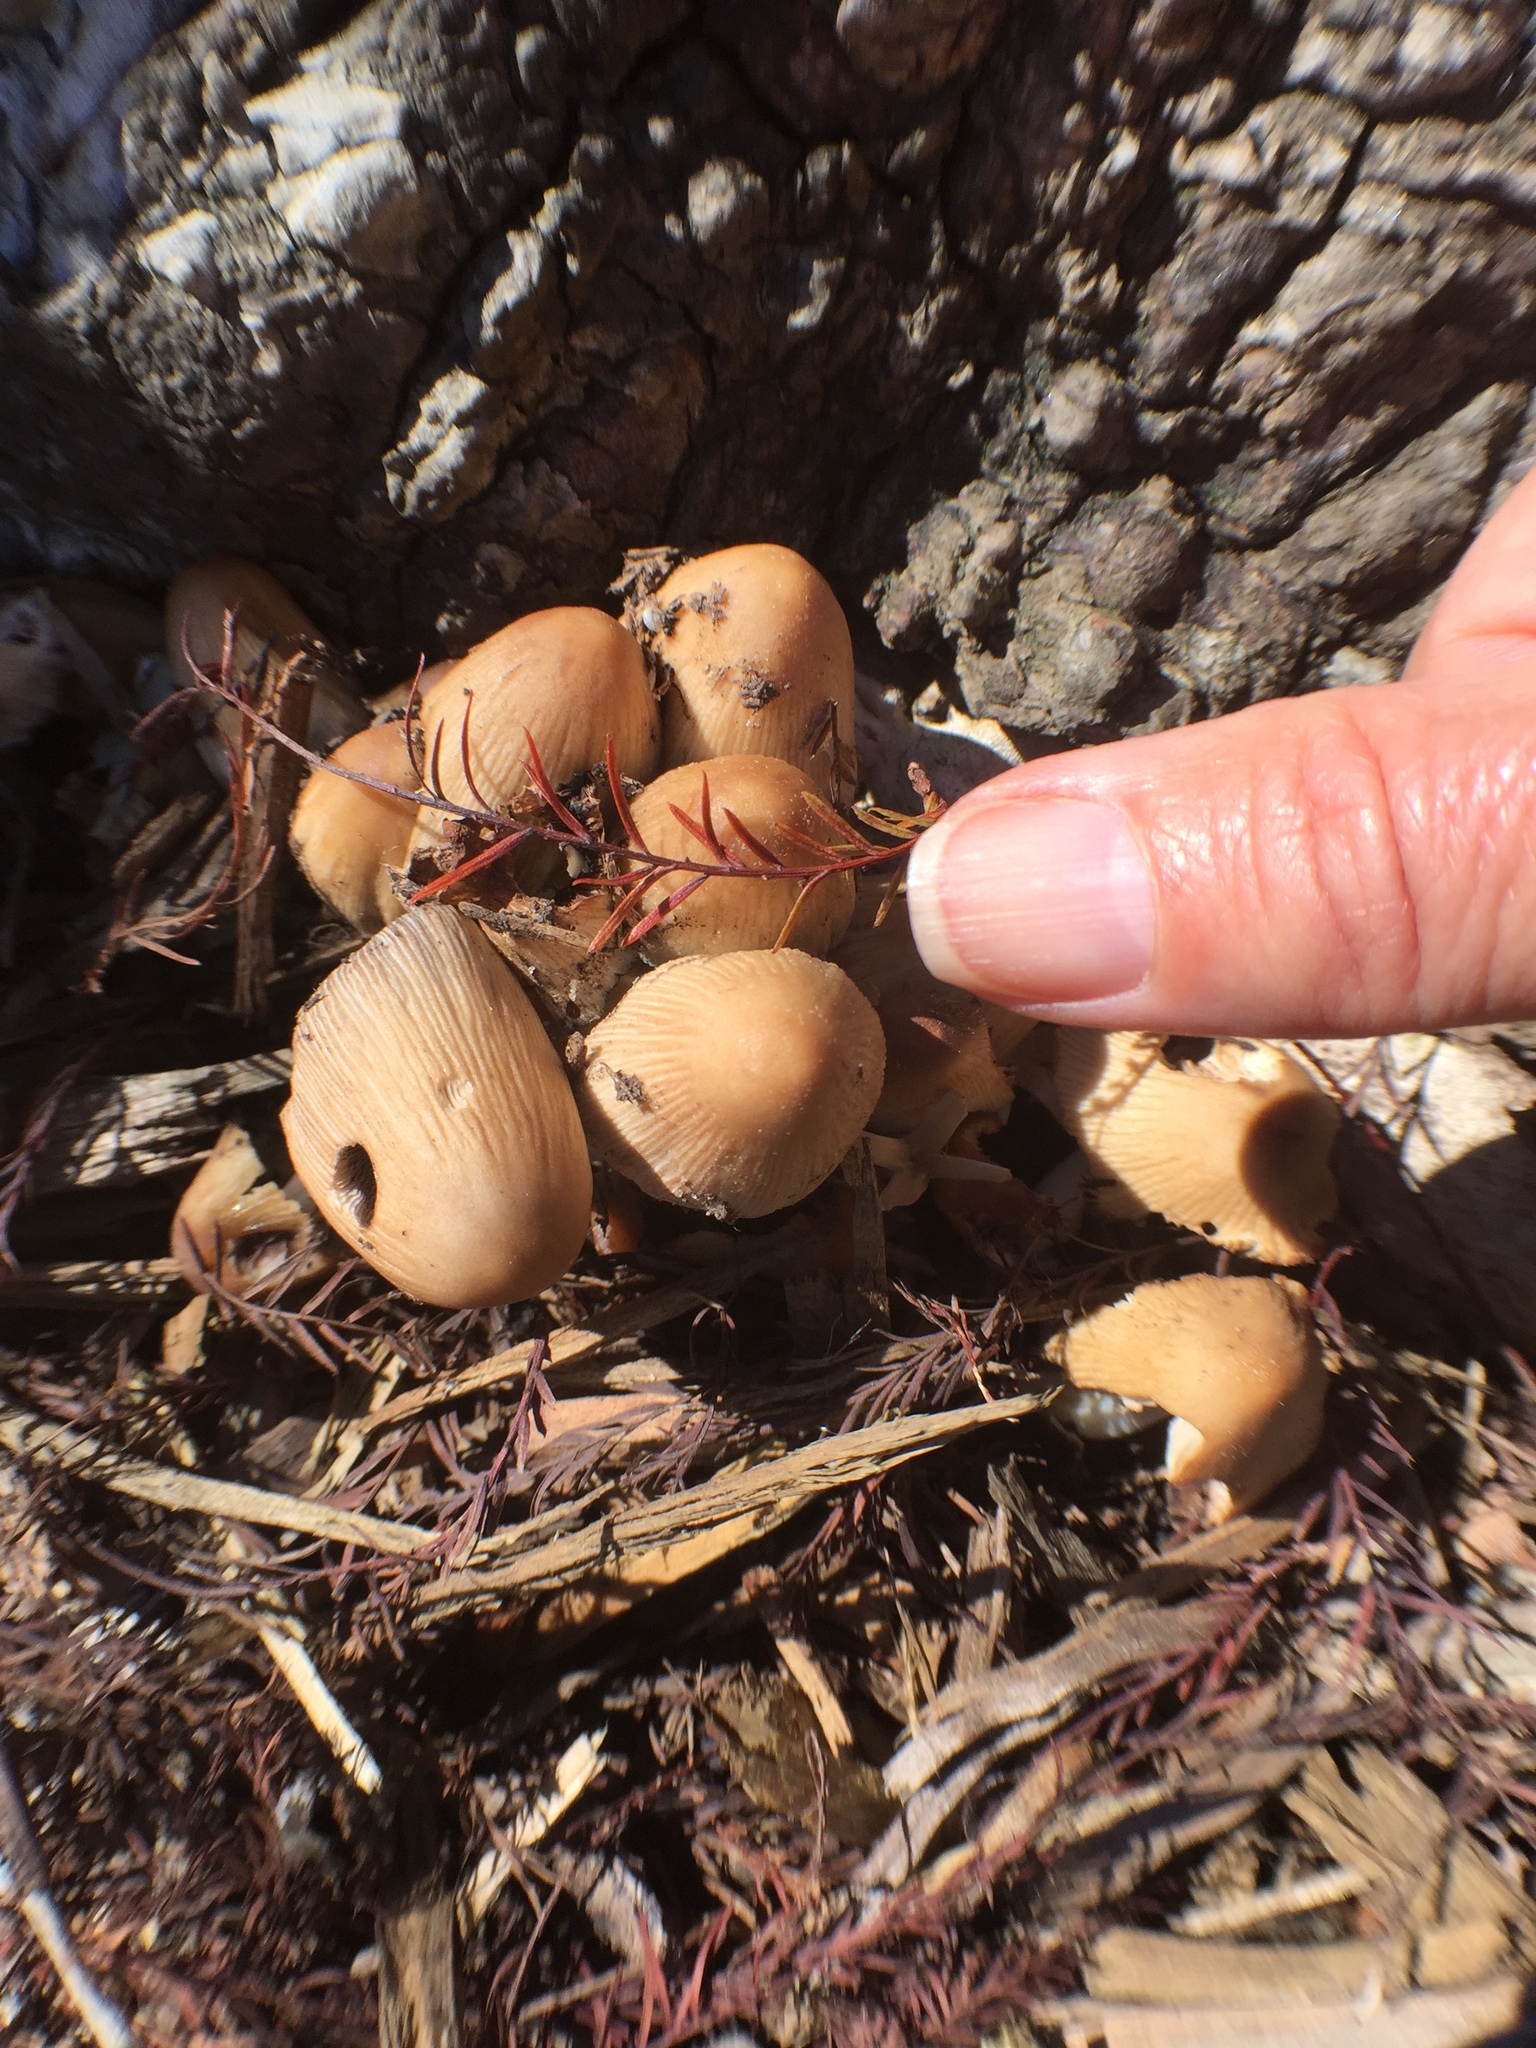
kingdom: Fungi
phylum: Basidiomycota
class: Agaricomycetes
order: Agaricales
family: Psathyrellaceae
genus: Coprinellus
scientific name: Coprinellus micaceus
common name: Glistening ink-cap
